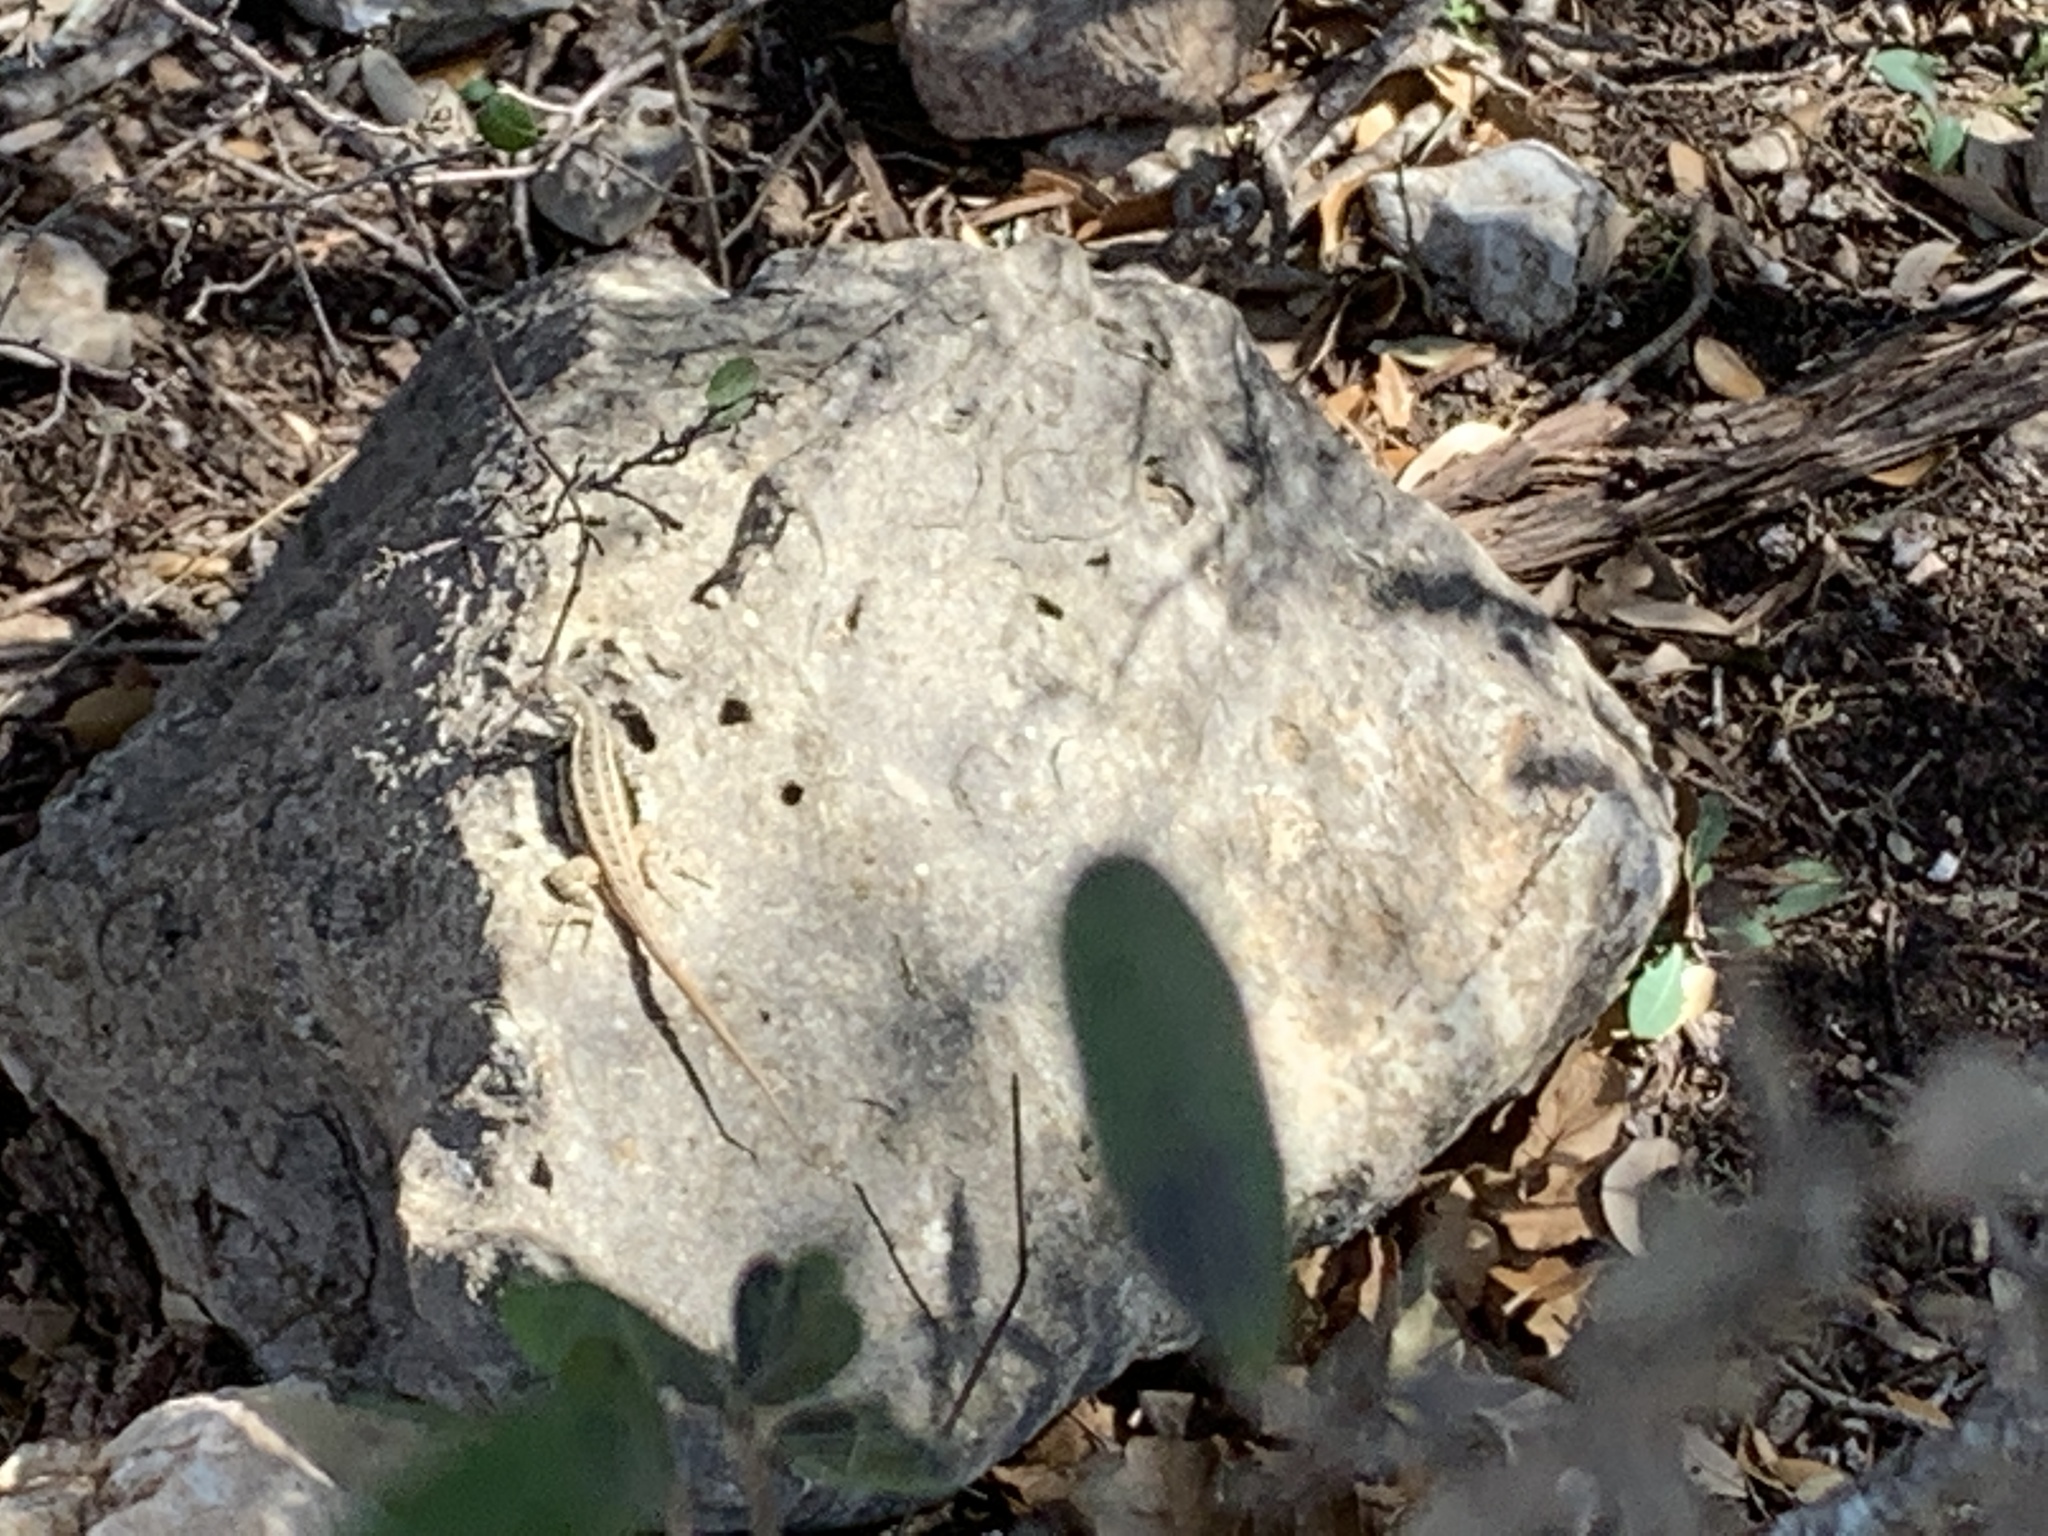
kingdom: Animalia
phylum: Chordata
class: Squamata
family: Phrynosomatidae
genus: Sceloporus
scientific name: Sceloporus variabilis
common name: Rosebelly lizard
